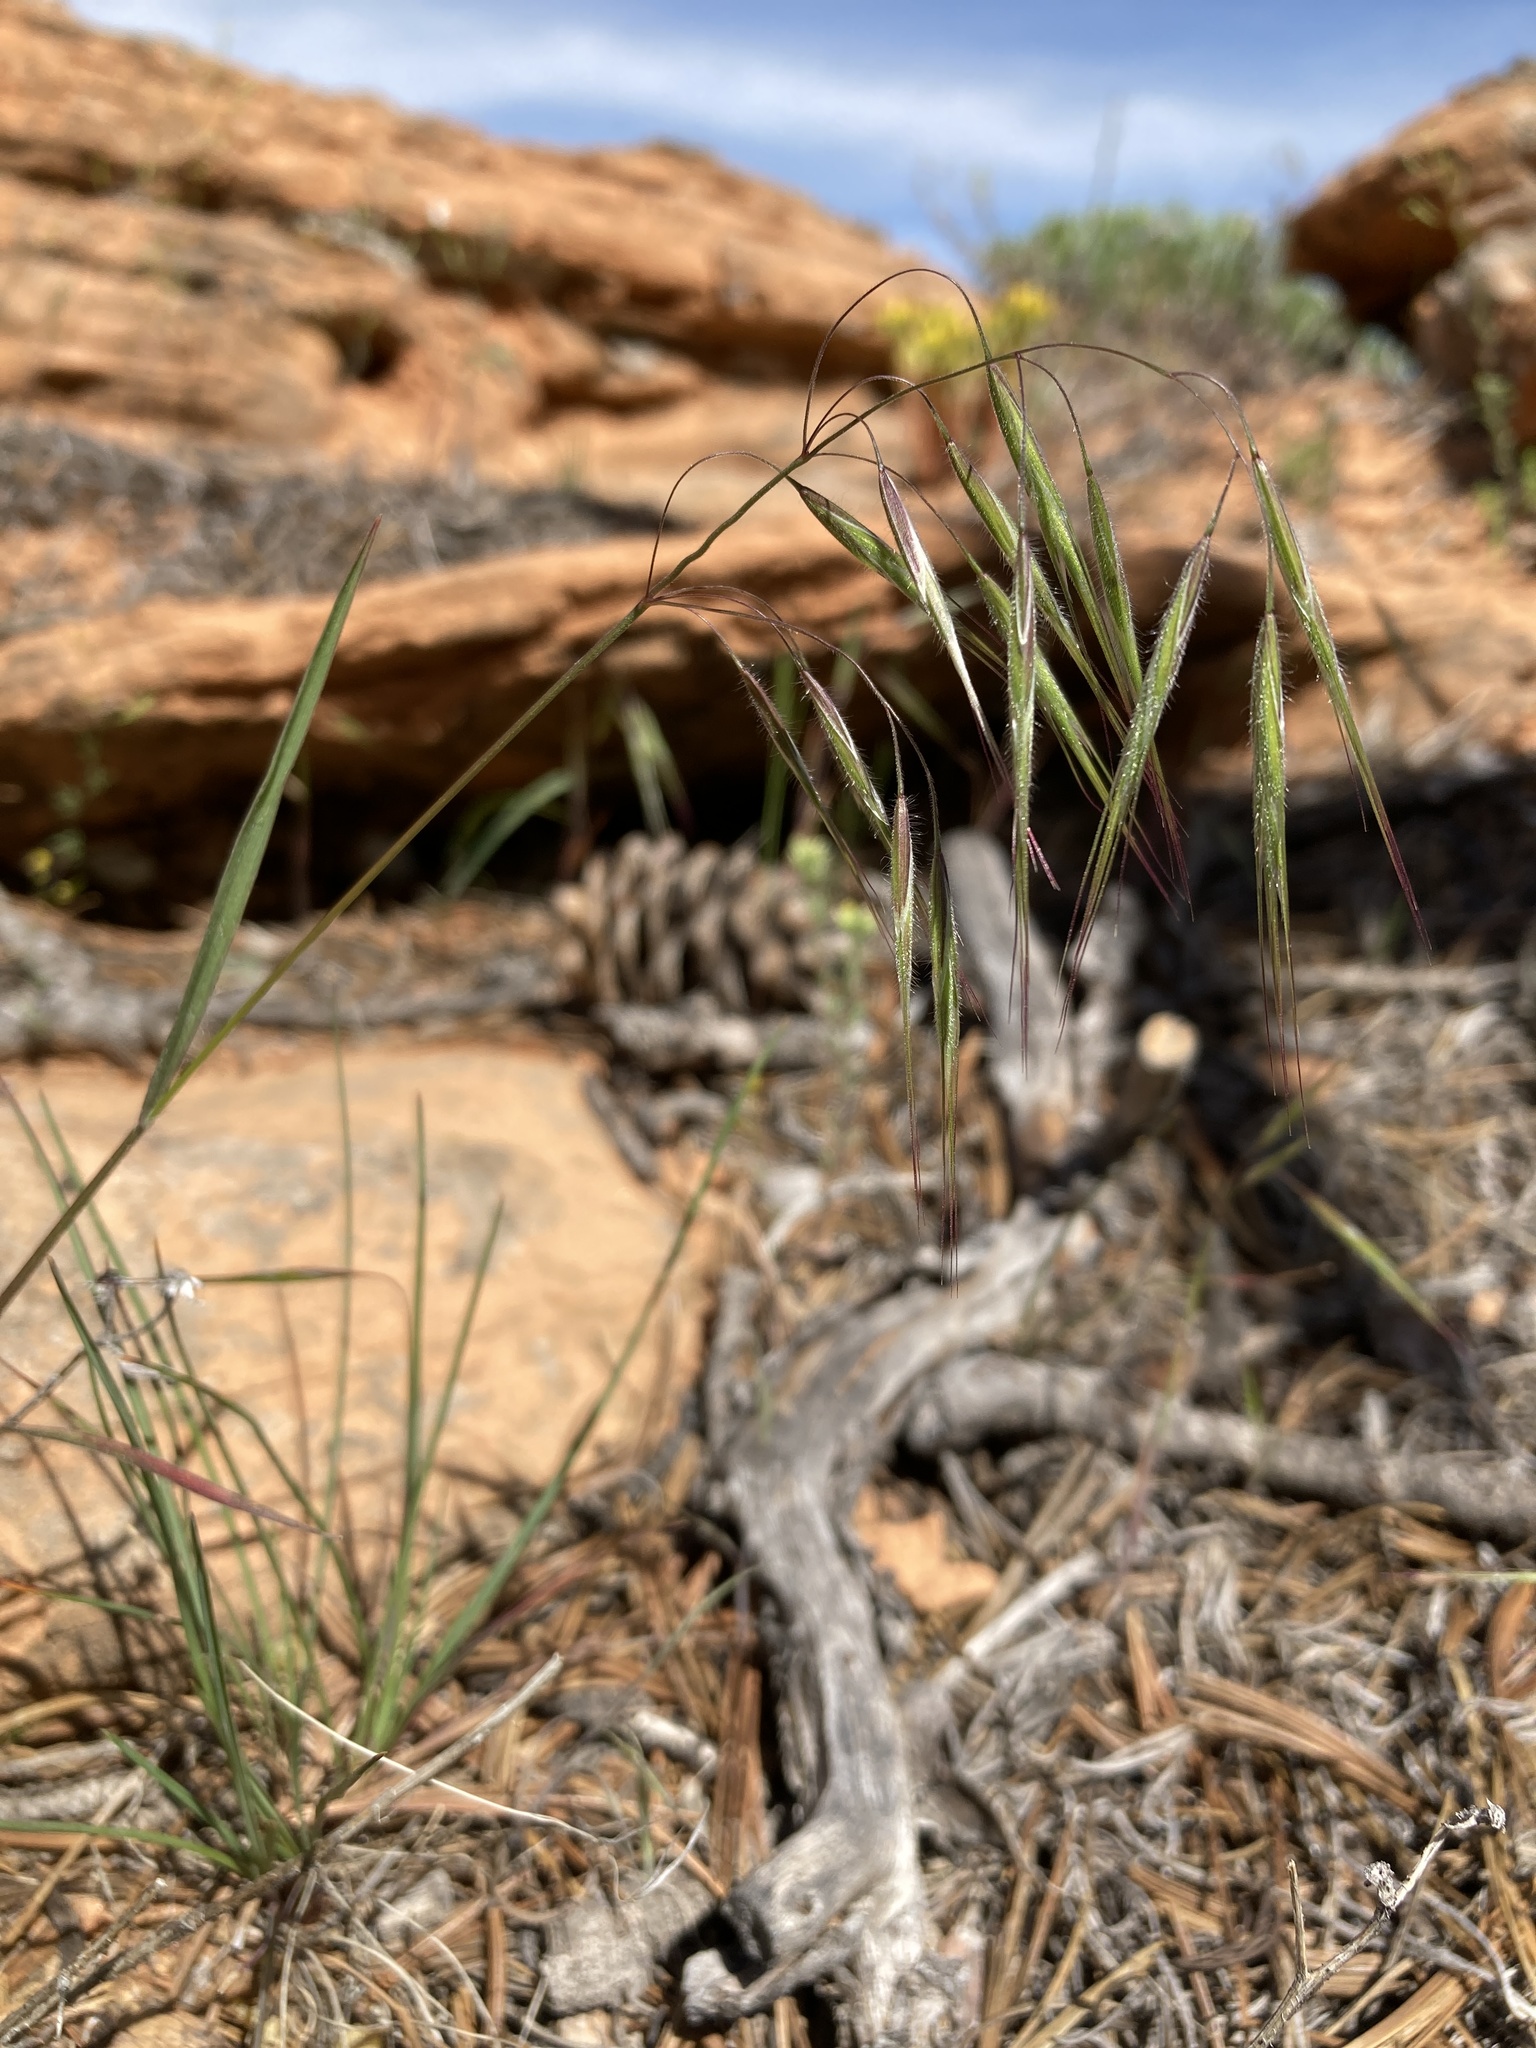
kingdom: Plantae
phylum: Tracheophyta
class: Liliopsida
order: Poales
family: Poaceae
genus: Bromus
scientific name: Bromus tectorum
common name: Cheatgrass
